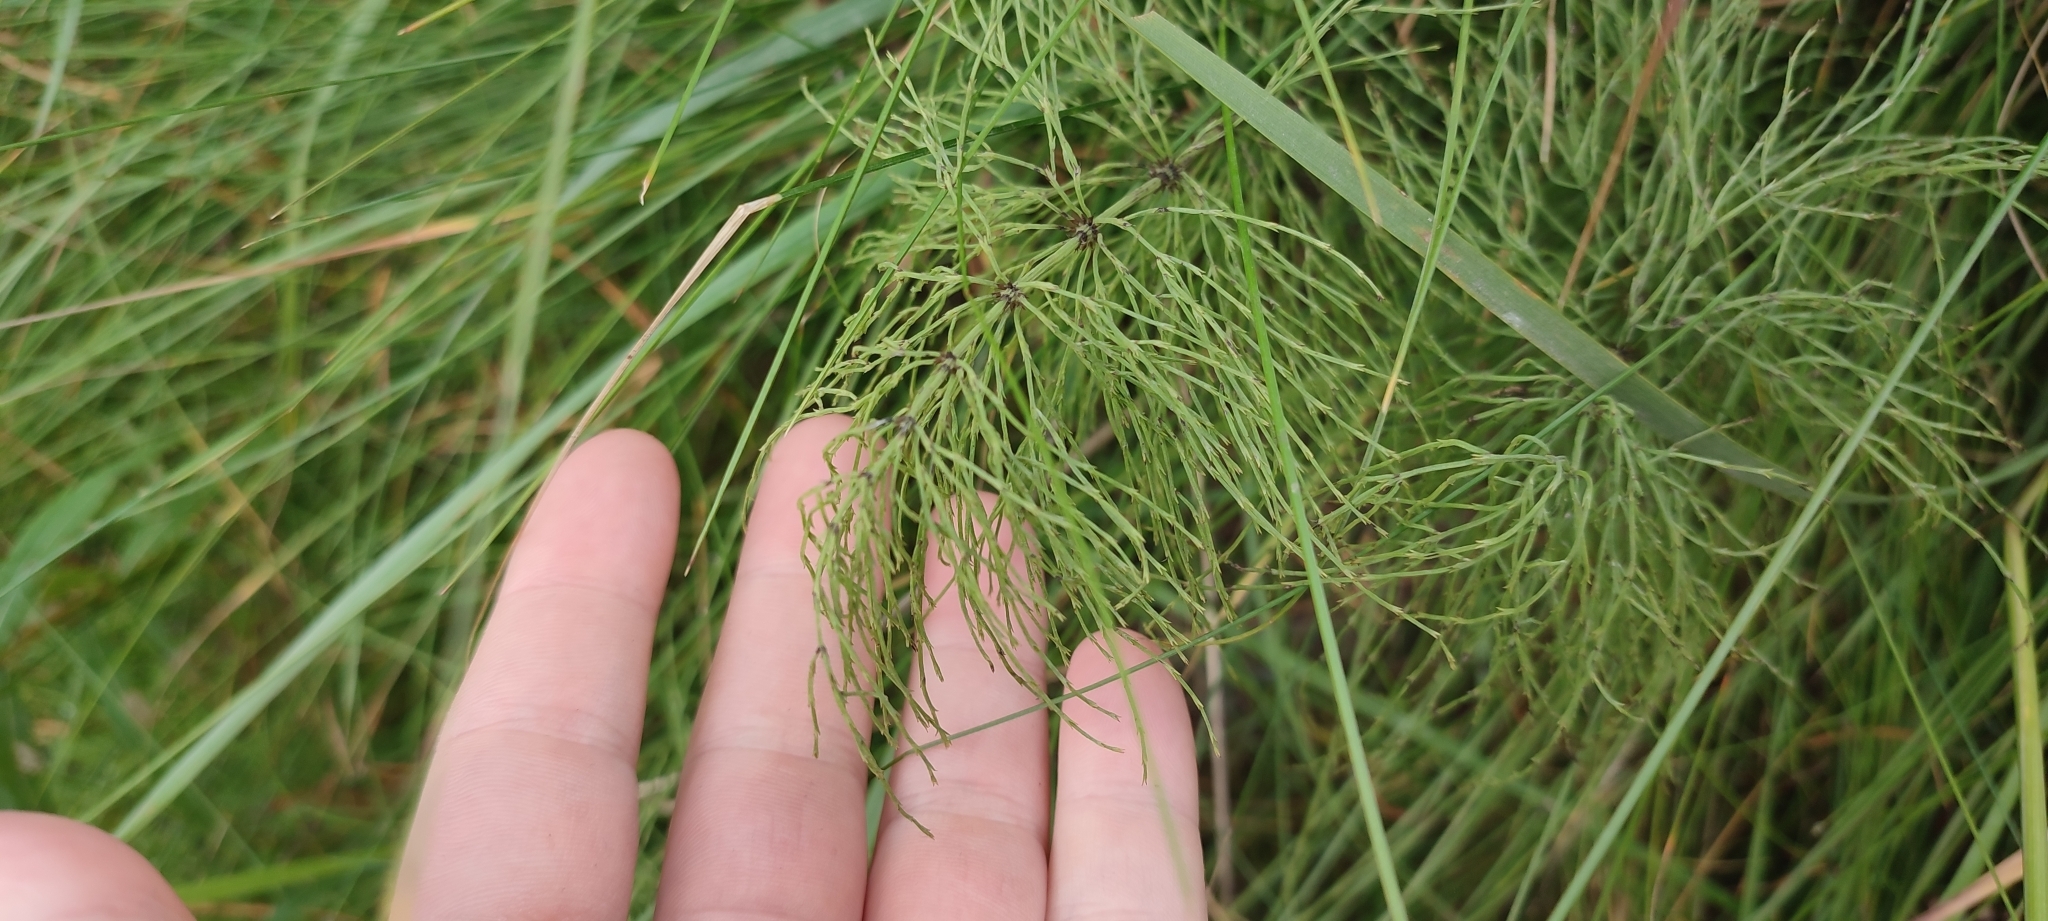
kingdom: Plantae
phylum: Tracheophyta
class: Polypodiopsida
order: Equisetales
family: Equisetaceae
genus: Equisetum
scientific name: Equisetum sylvaticum
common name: Wood horsetail
